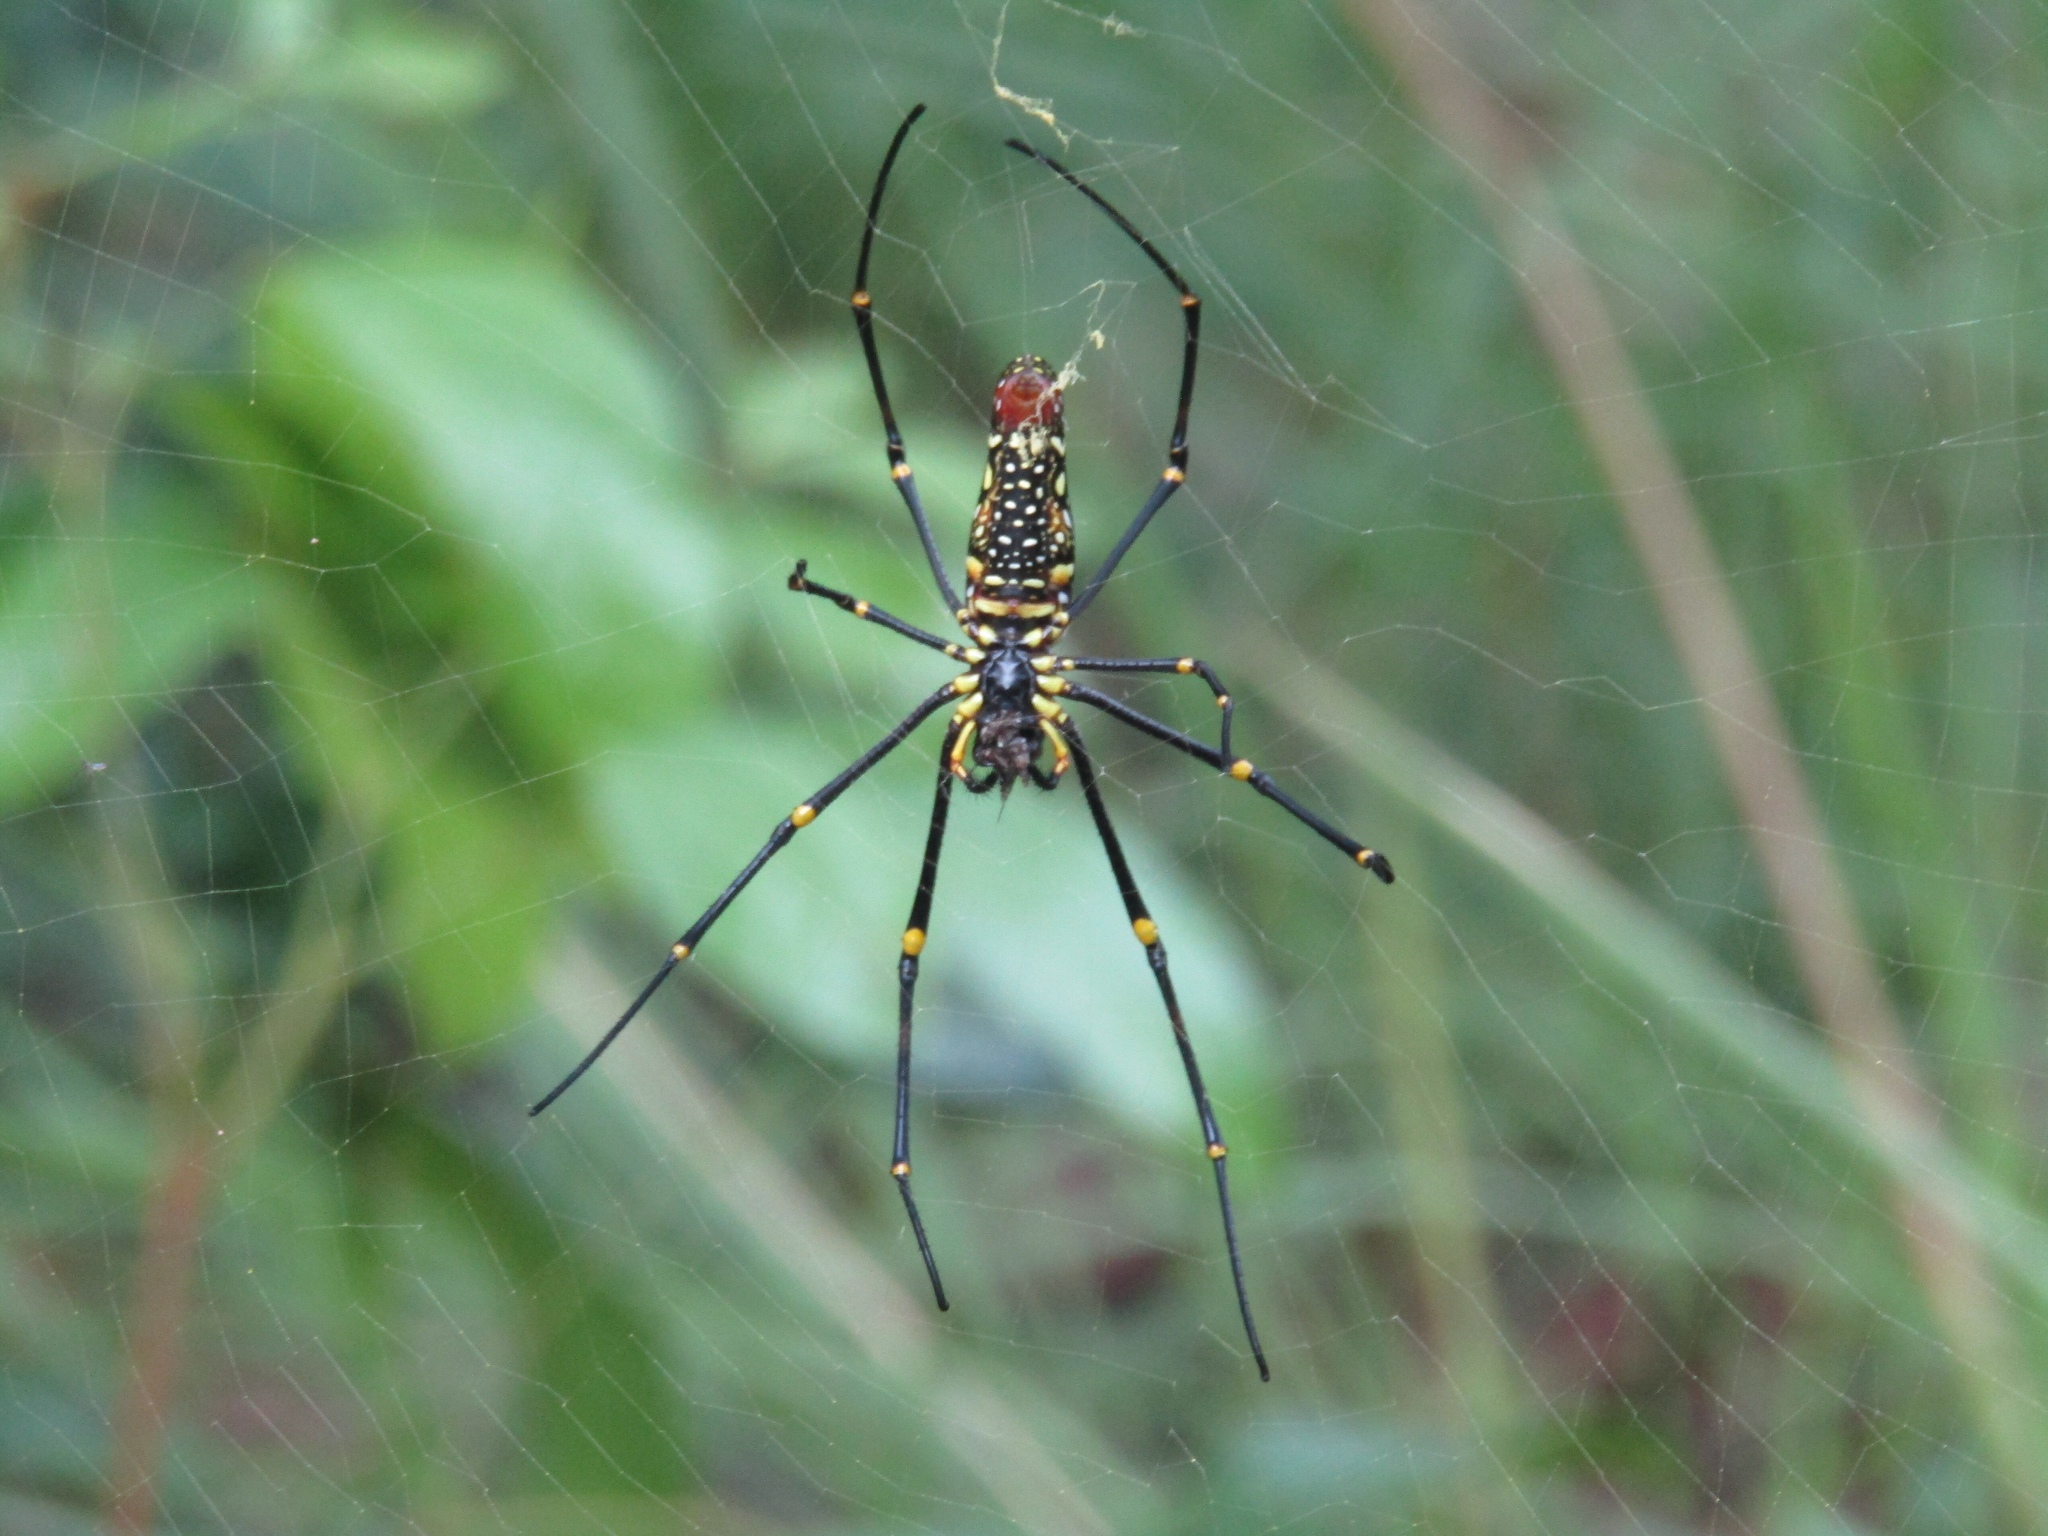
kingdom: Animalia
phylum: Arthropoda
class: Arachnida
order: Araneae
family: Araneidae
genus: Nephila
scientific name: Nephila pilipes
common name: Giant golden orb weaver
